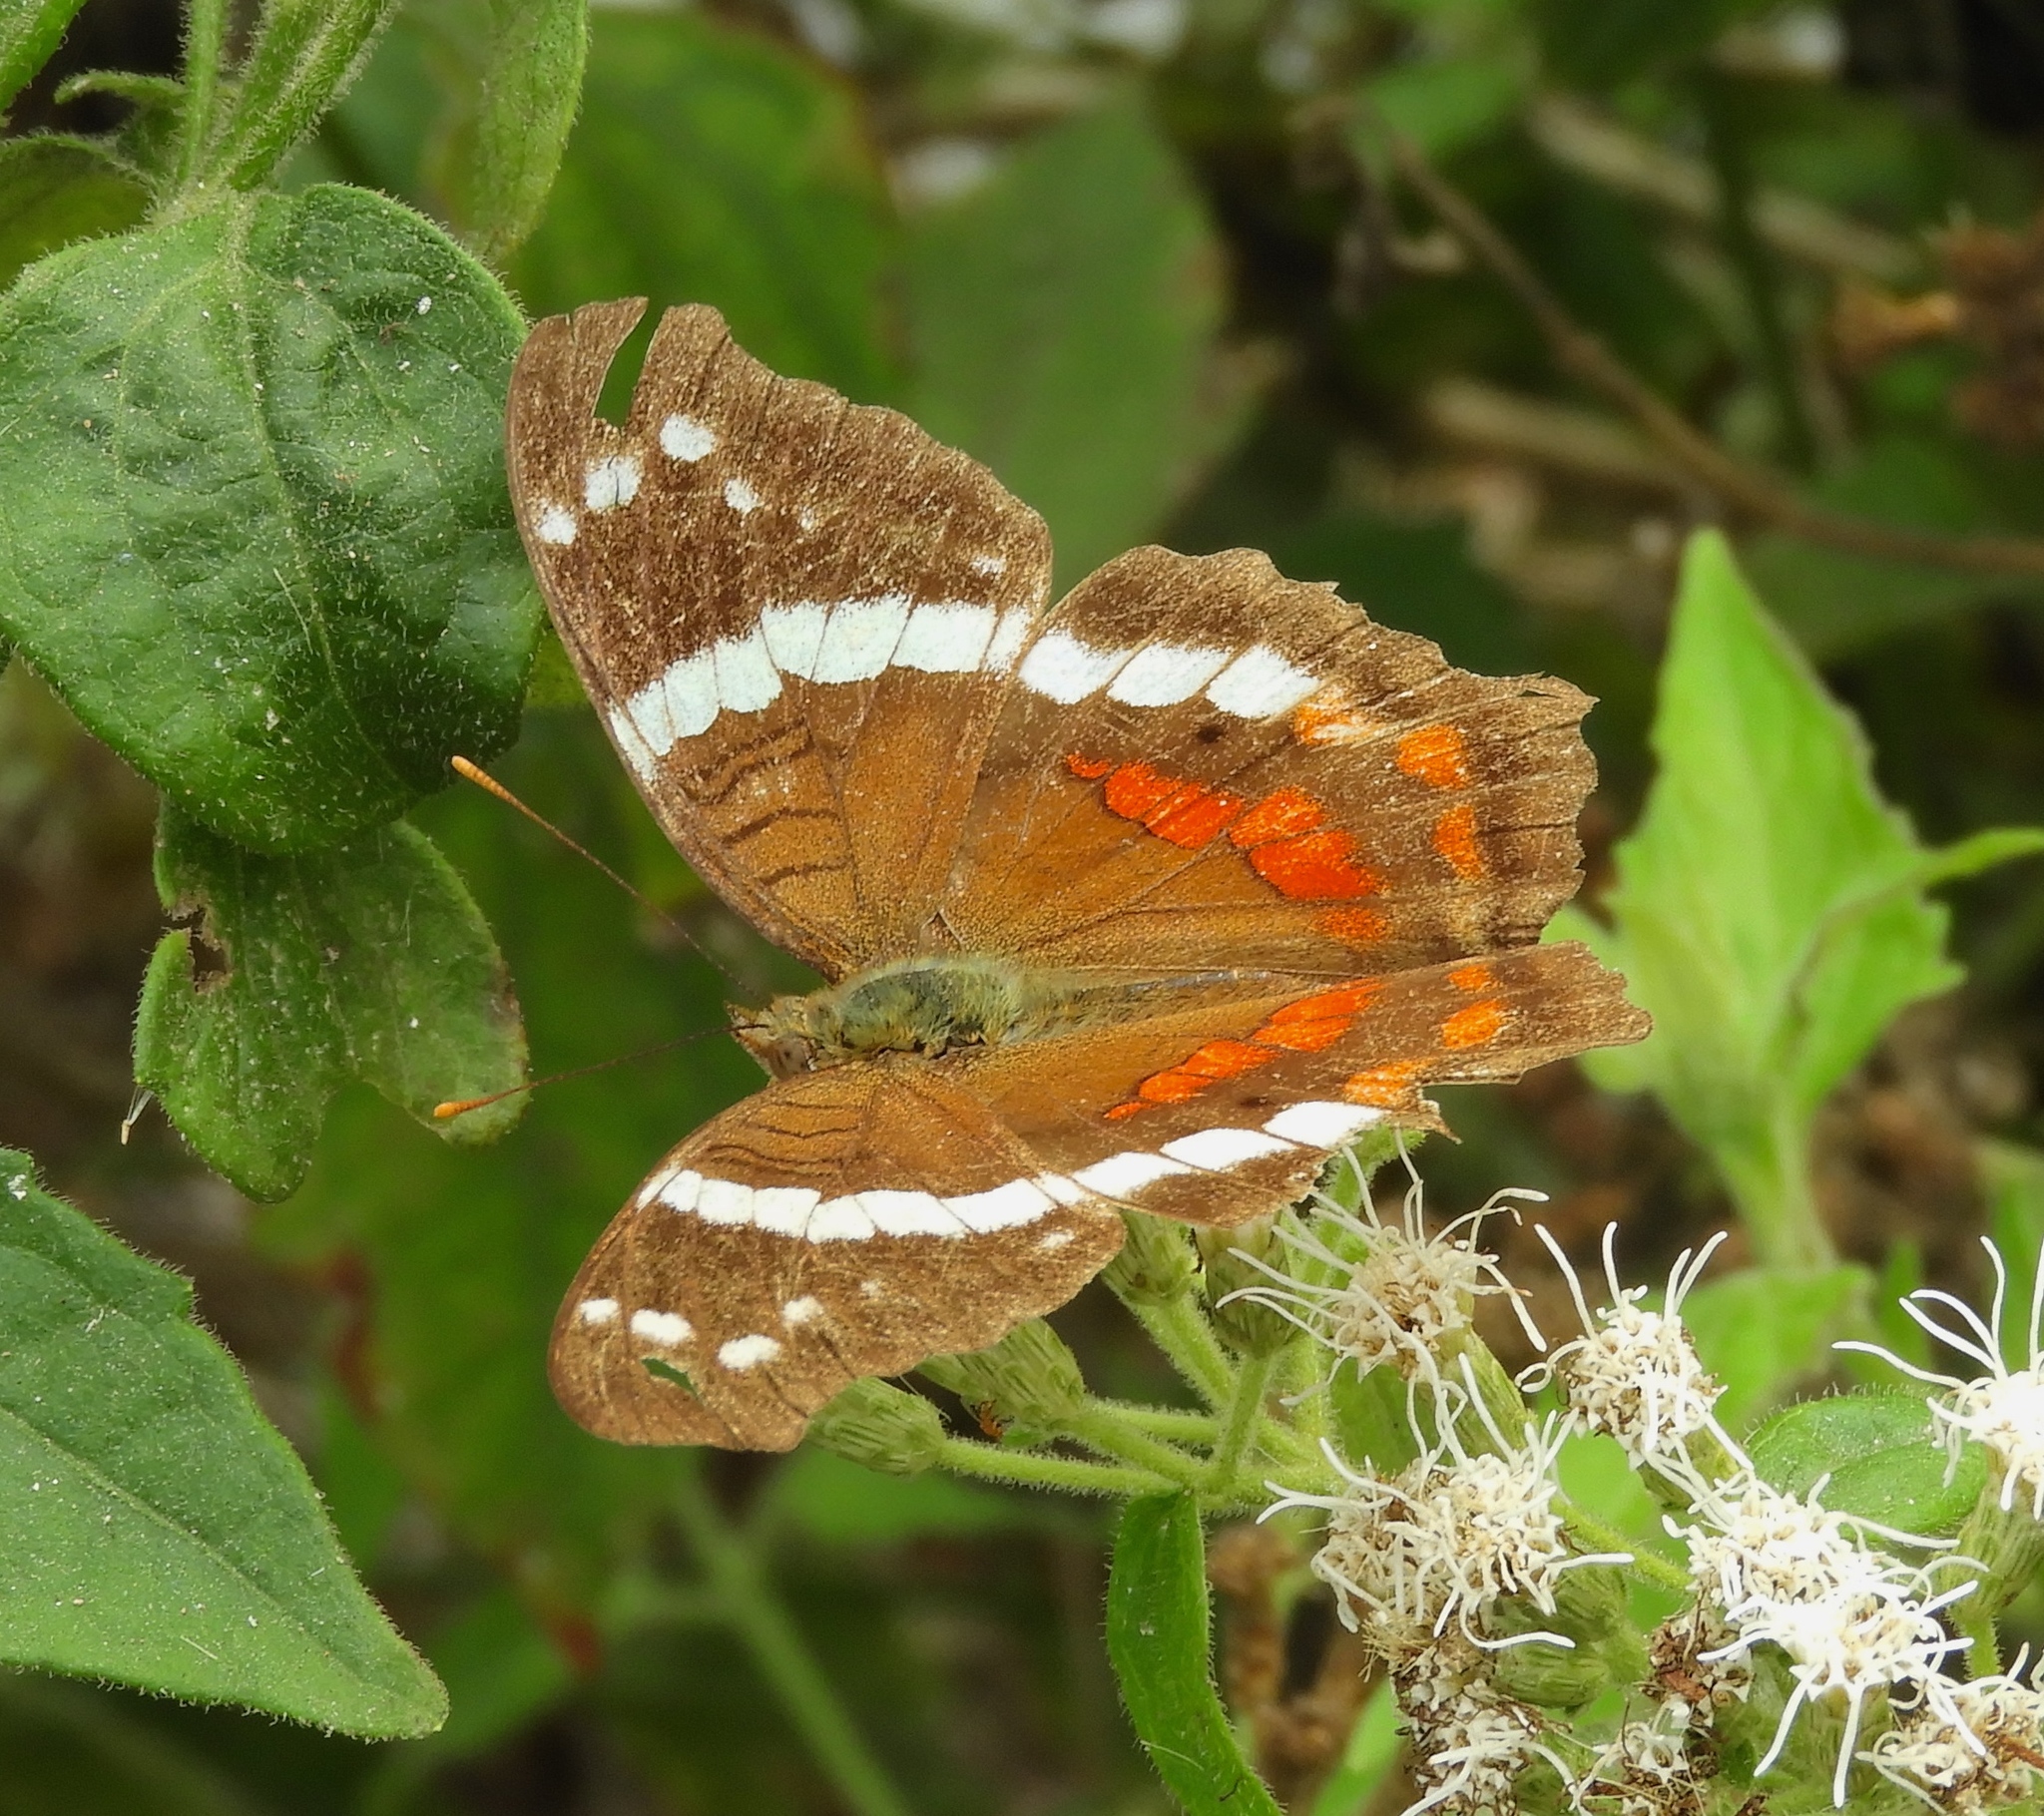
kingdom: Animalia
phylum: Arthropoda
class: Insecta
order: Lepidoptera
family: Nymphalidae
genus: Anartia
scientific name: Anartia fatima
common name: Banded peacock
